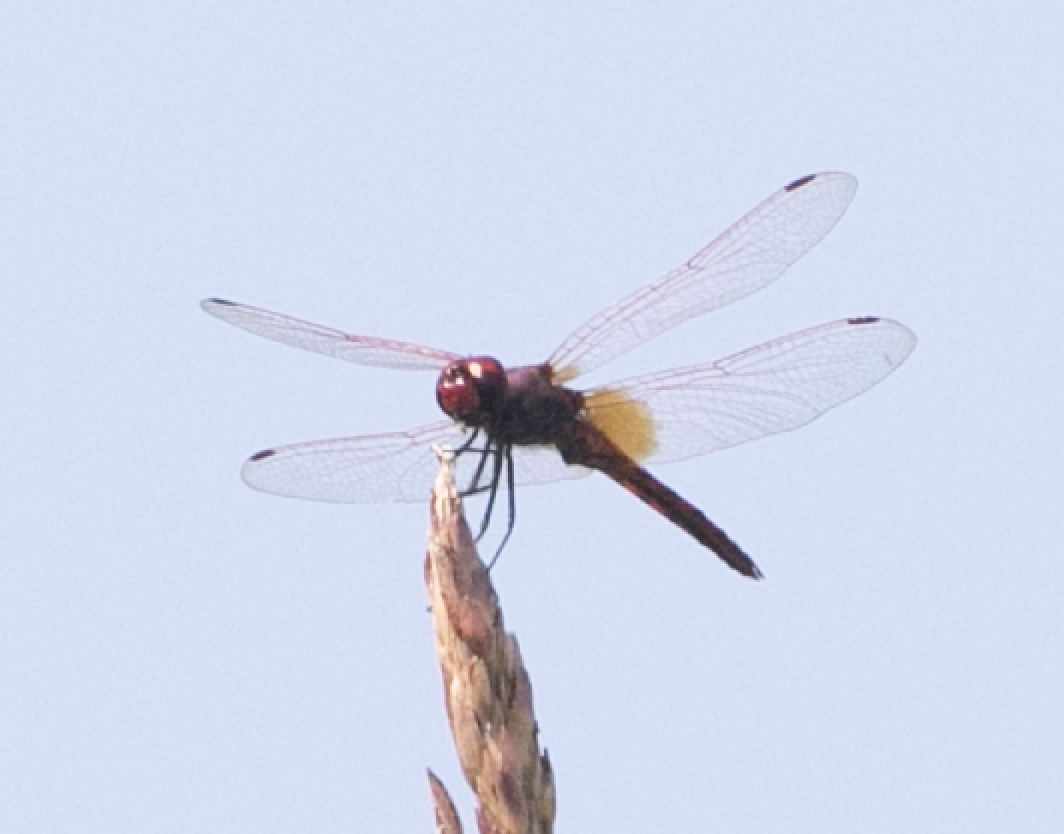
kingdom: Animalia
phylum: Arthropoda
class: Insecta
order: Odonata
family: Libellulidae
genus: Trithemis
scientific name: Trithemis annulata
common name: Violet dropwing
